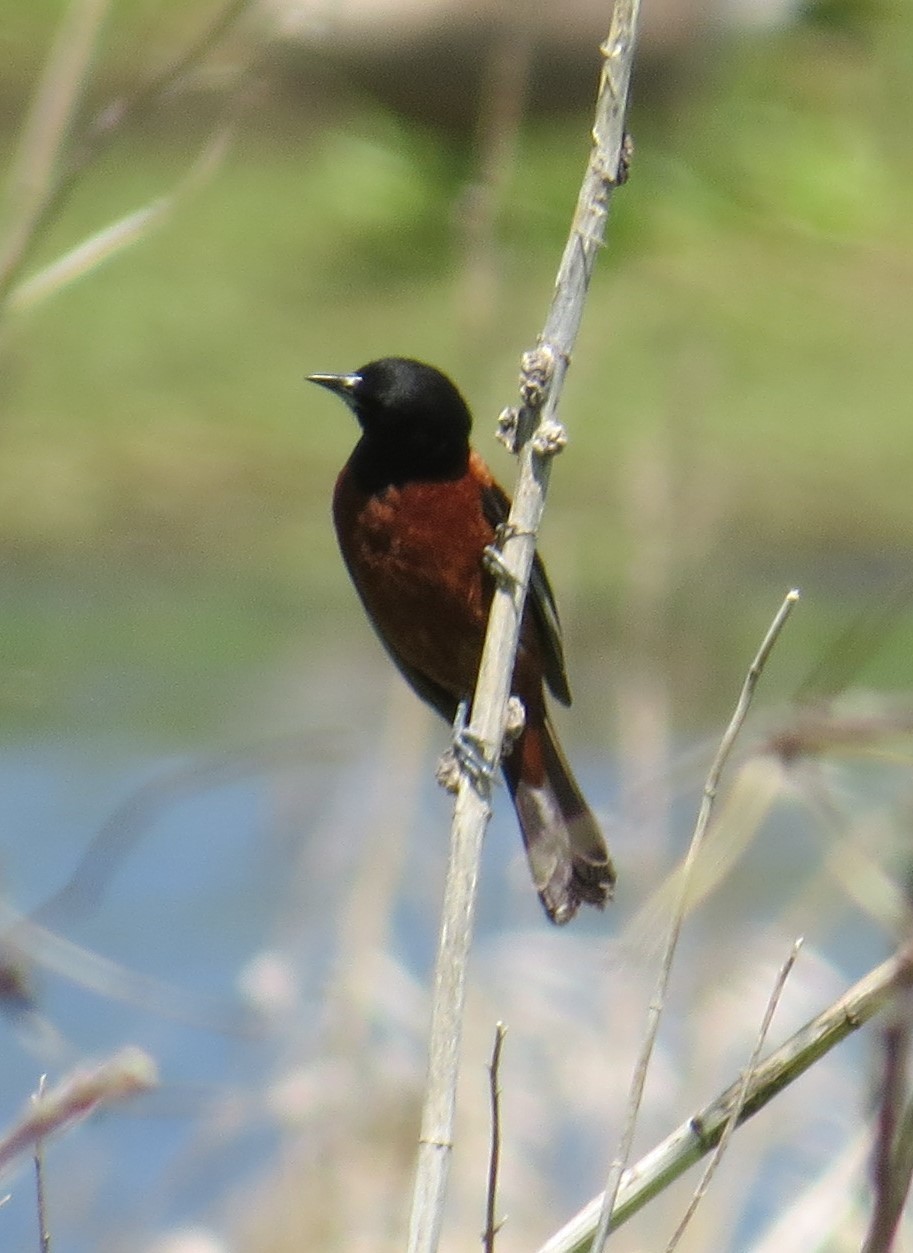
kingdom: Animalia
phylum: Chordata
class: Aves
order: Passeriformes
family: Icteridae
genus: Icterus
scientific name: Icterus spurius
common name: Orchard oriole
